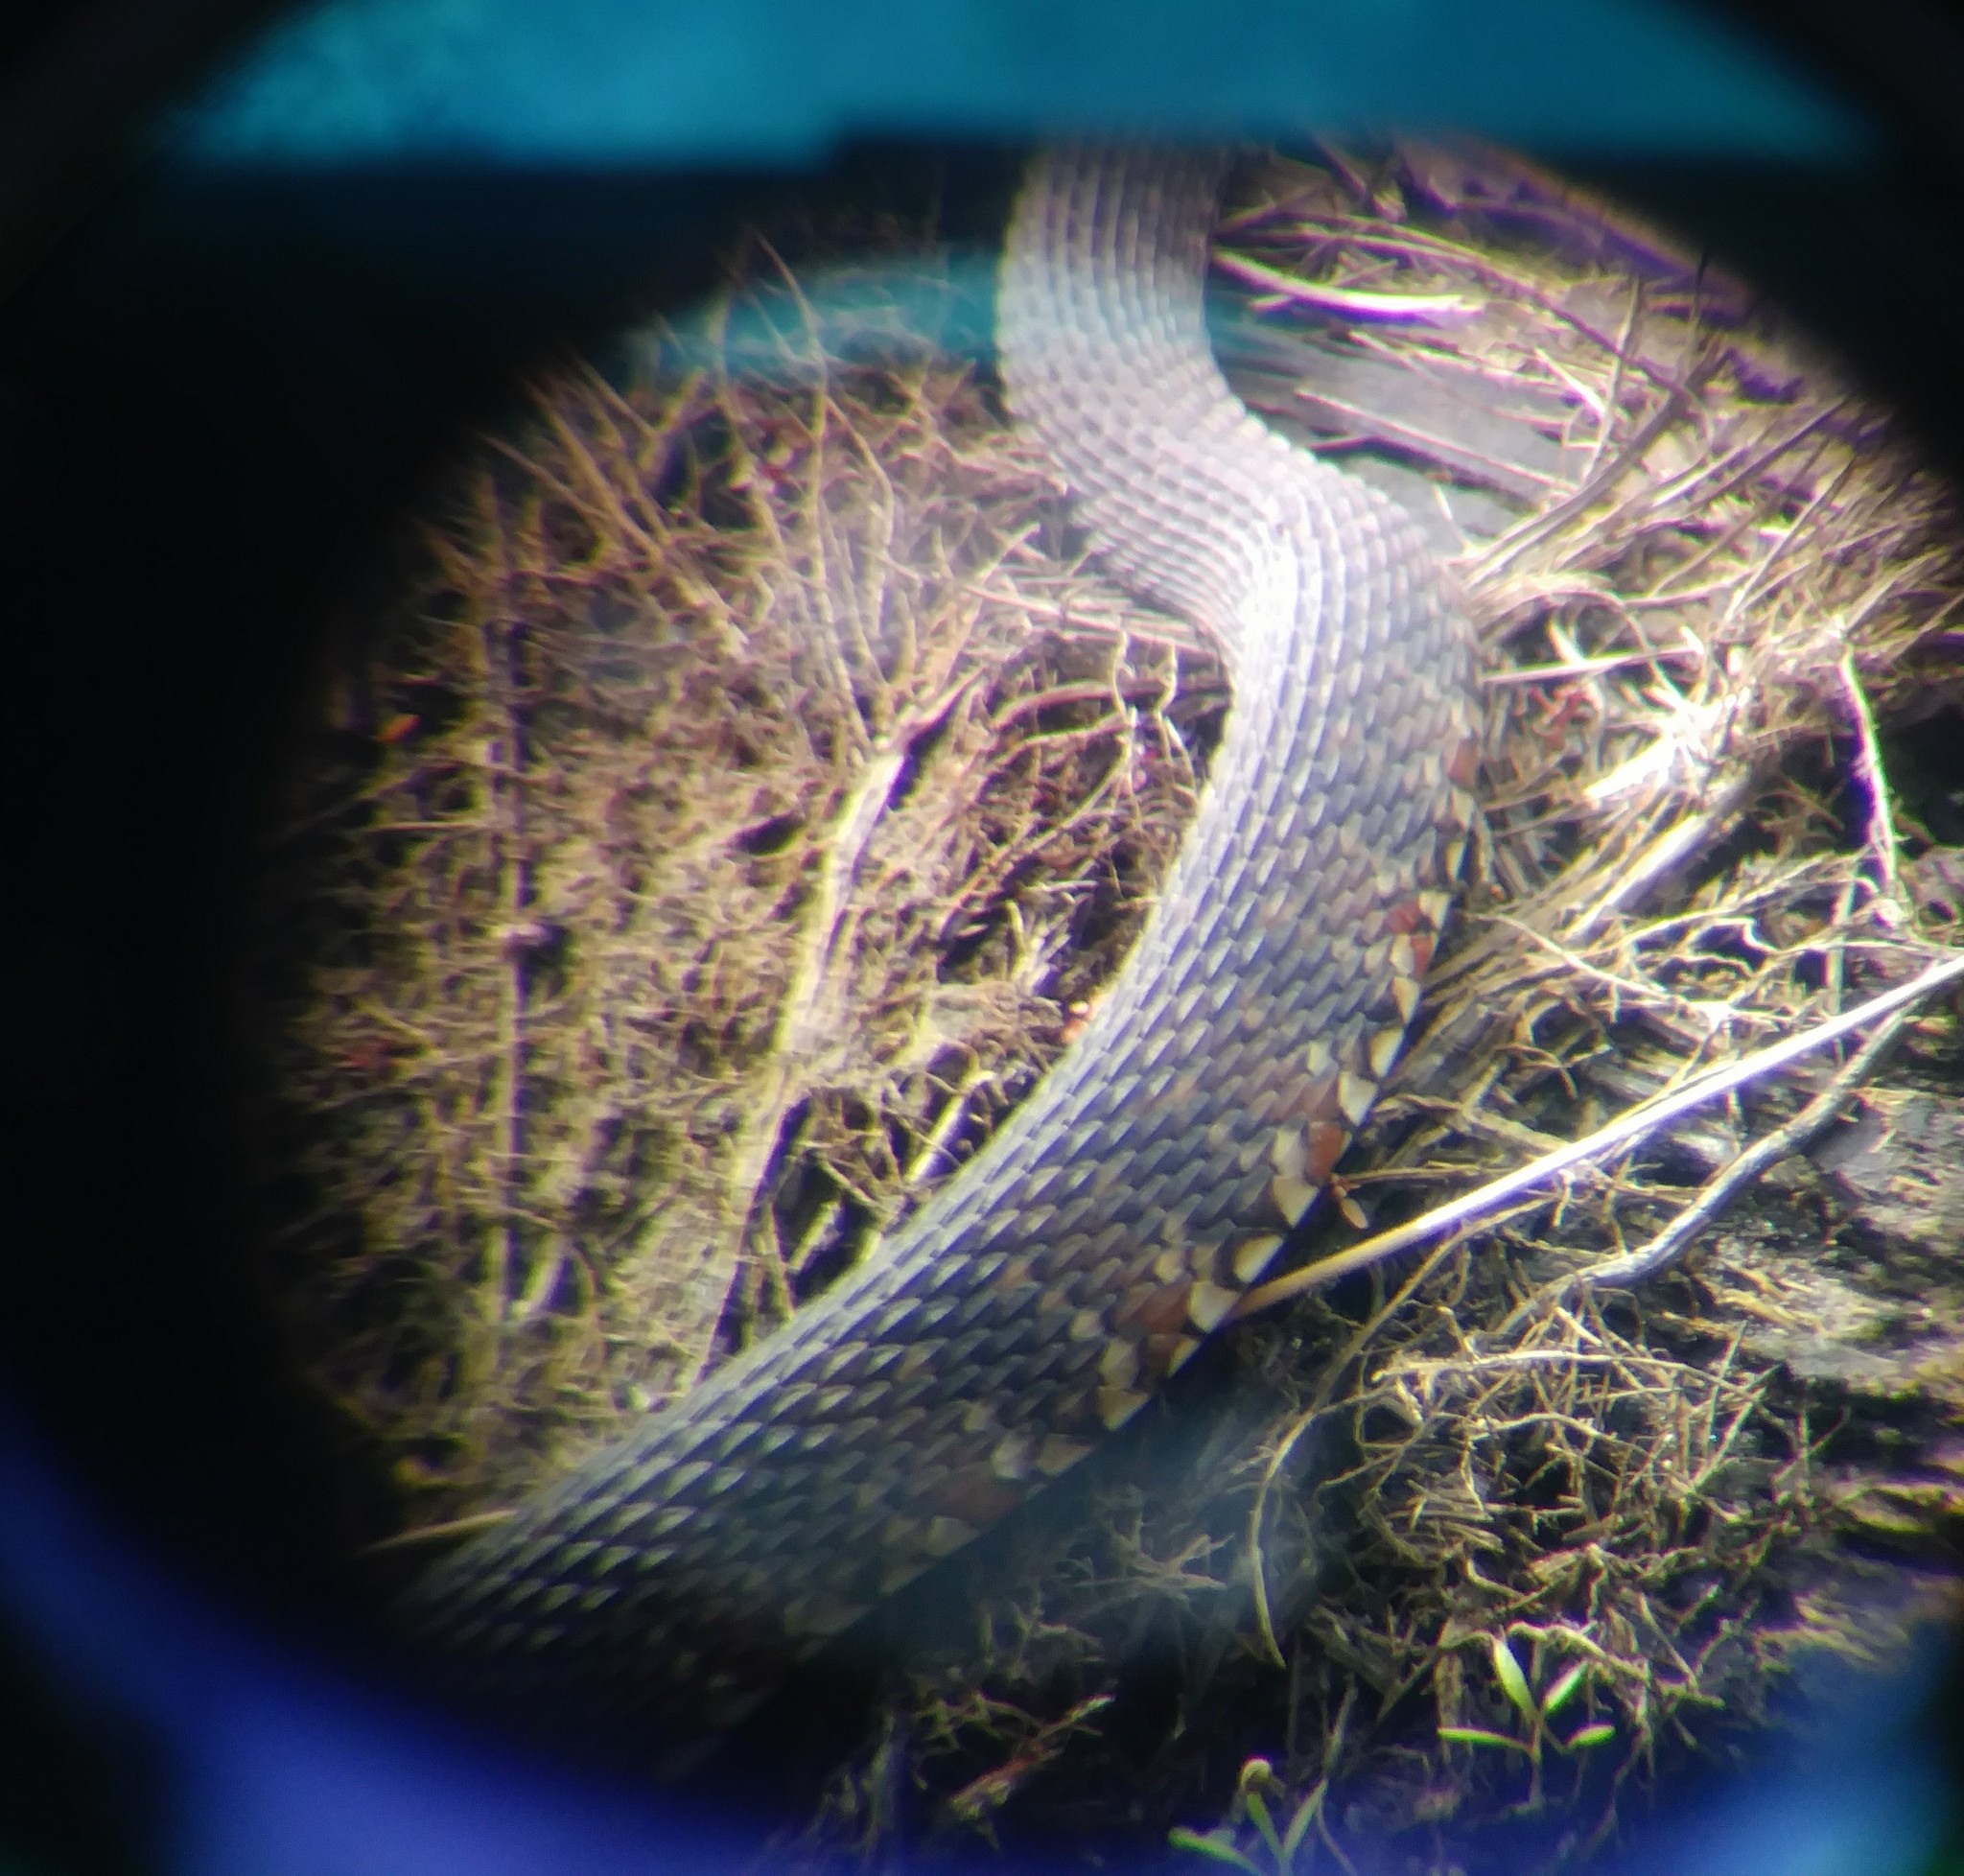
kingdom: Animalia
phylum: Chordata
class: Squamata
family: Colubridae
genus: Nerodia
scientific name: Nerodia fasciata
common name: Southern water snake
